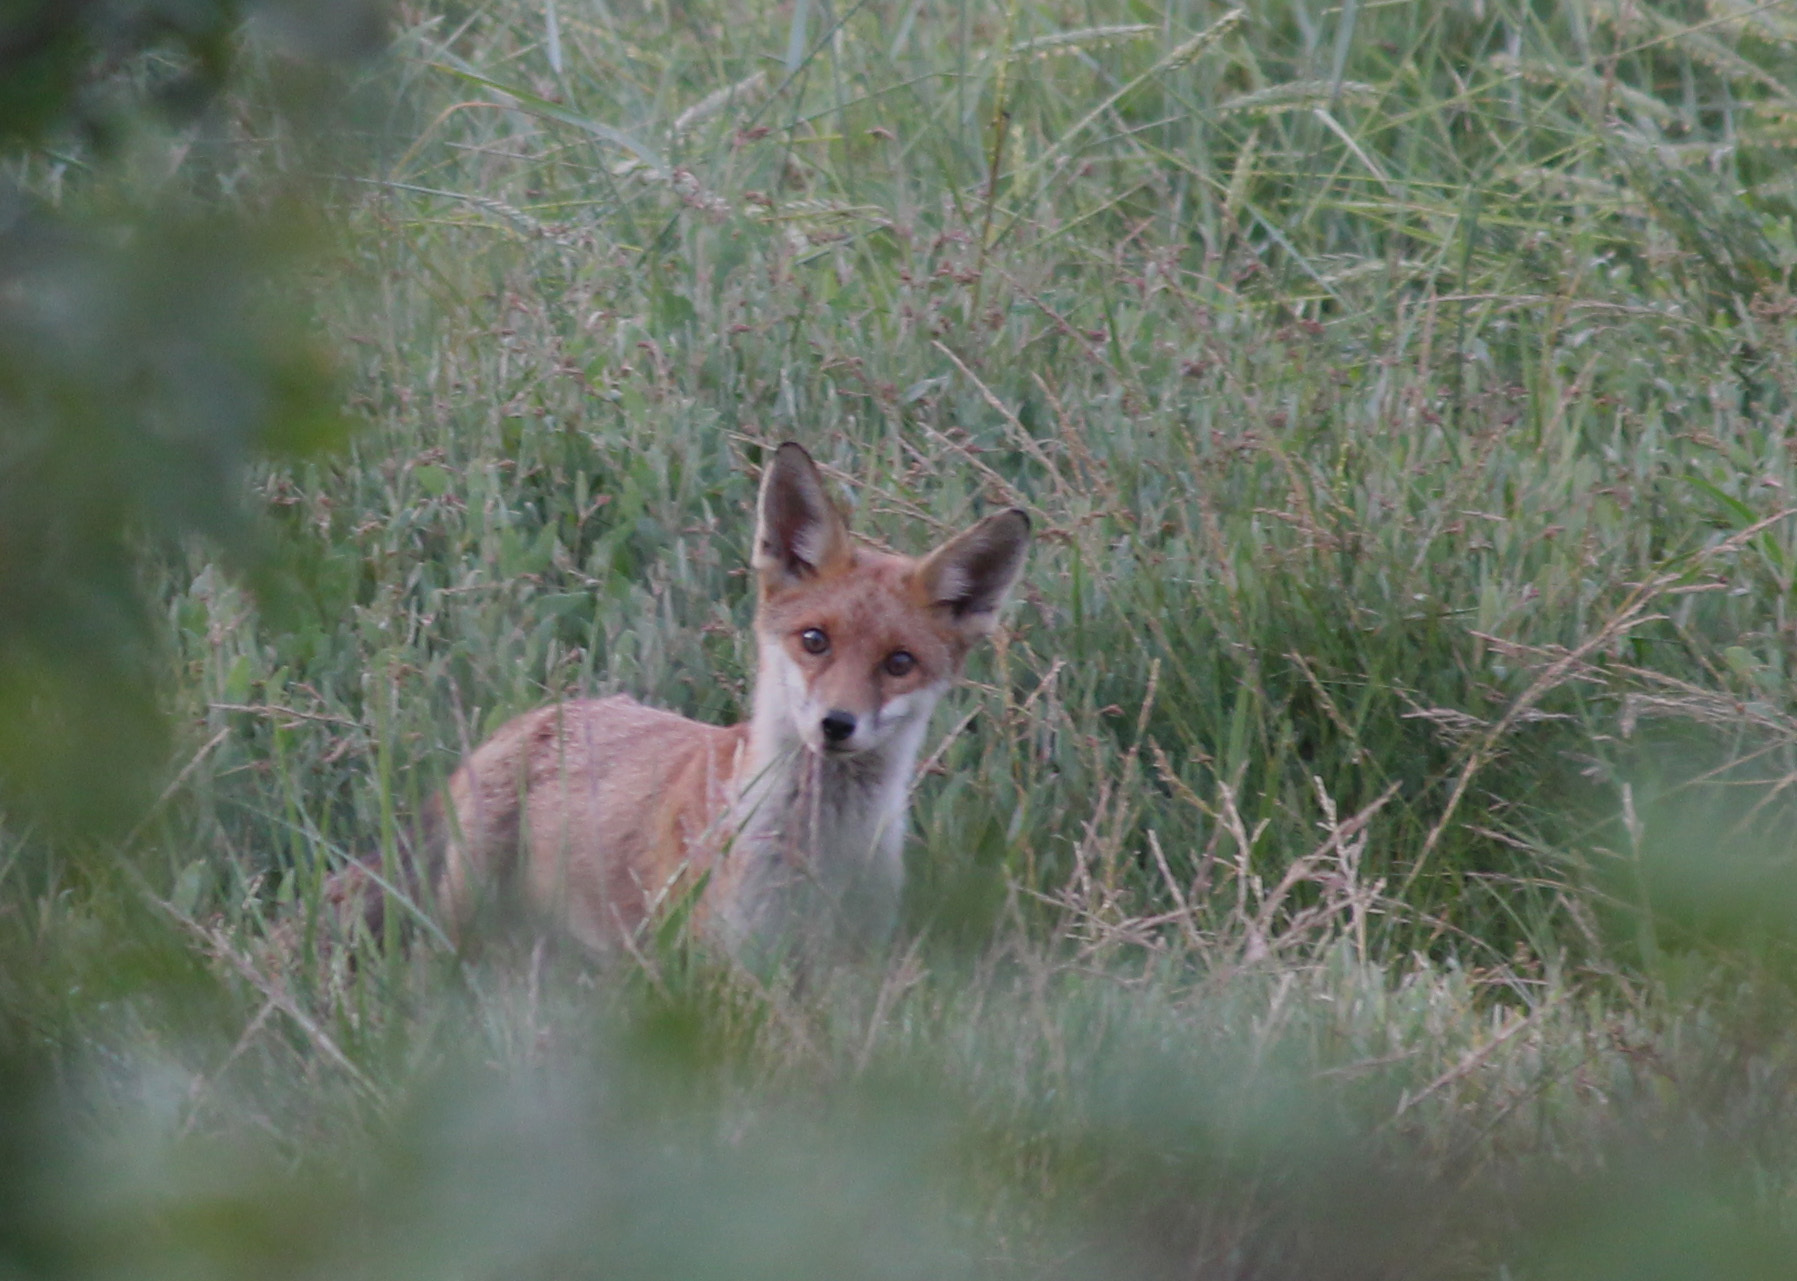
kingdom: Animalia
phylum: Chordata
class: Mammalia
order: Carnivora
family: Canidae
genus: Vulpes
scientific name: Vulpes vulpes
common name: Red fox
